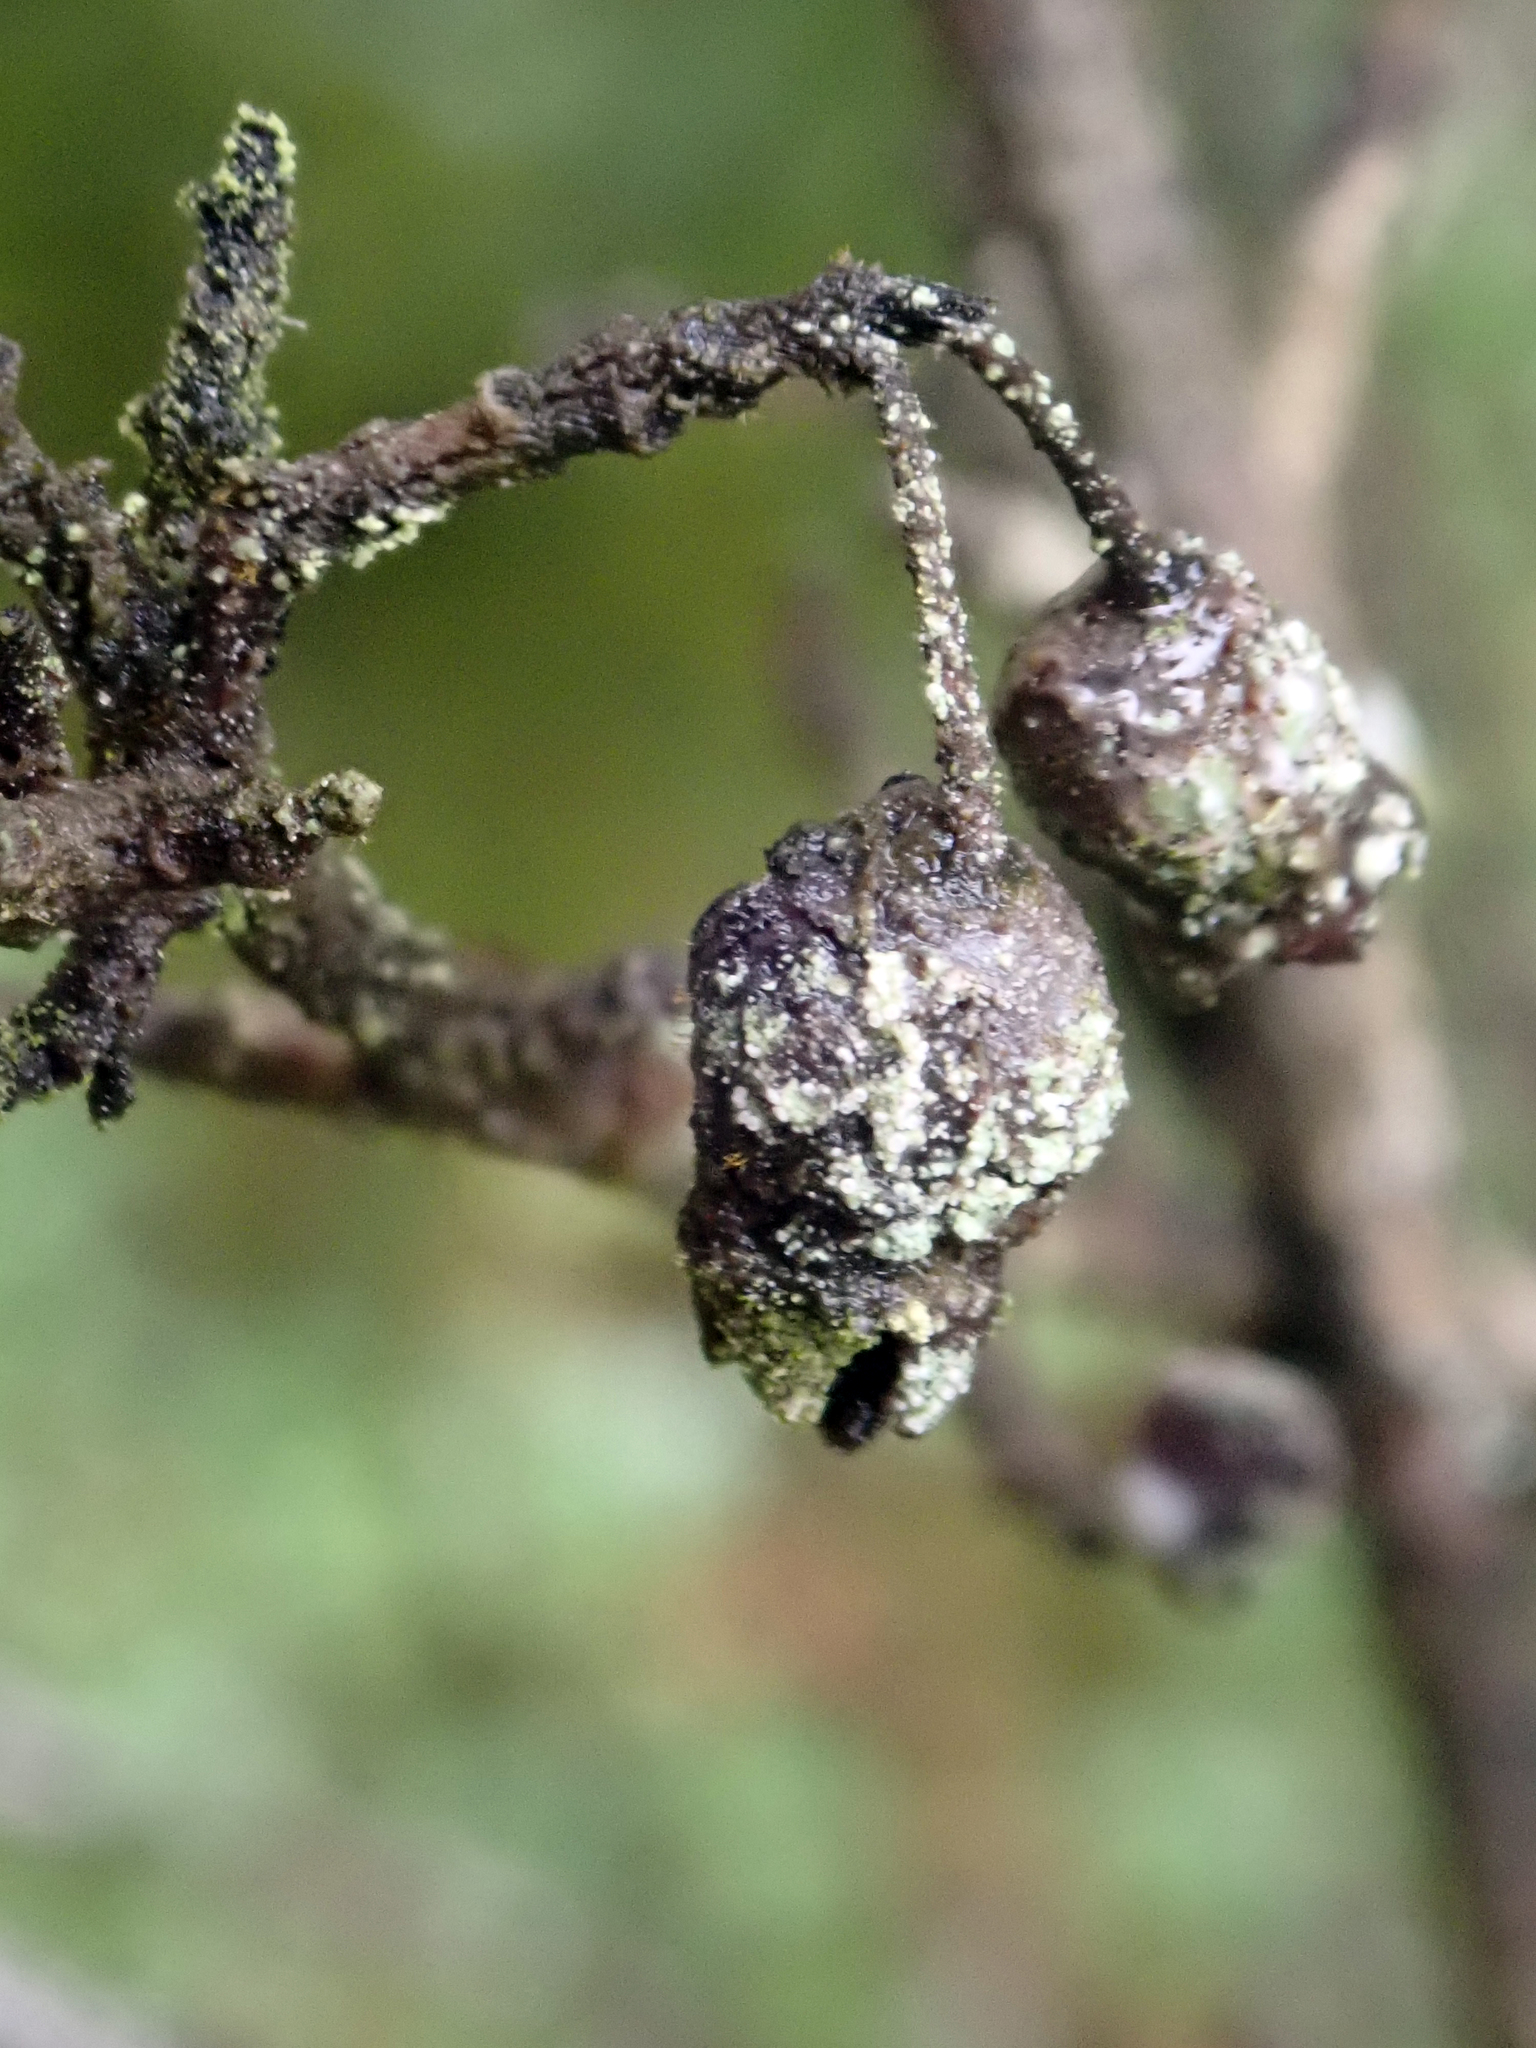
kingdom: Fungi
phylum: Basidiomycota
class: Pucciniomycetes
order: Pucciniales
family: Sphaerophragmiaceae
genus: Austropuccinia
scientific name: Austropuccinia psidii
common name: Myrtle rust
